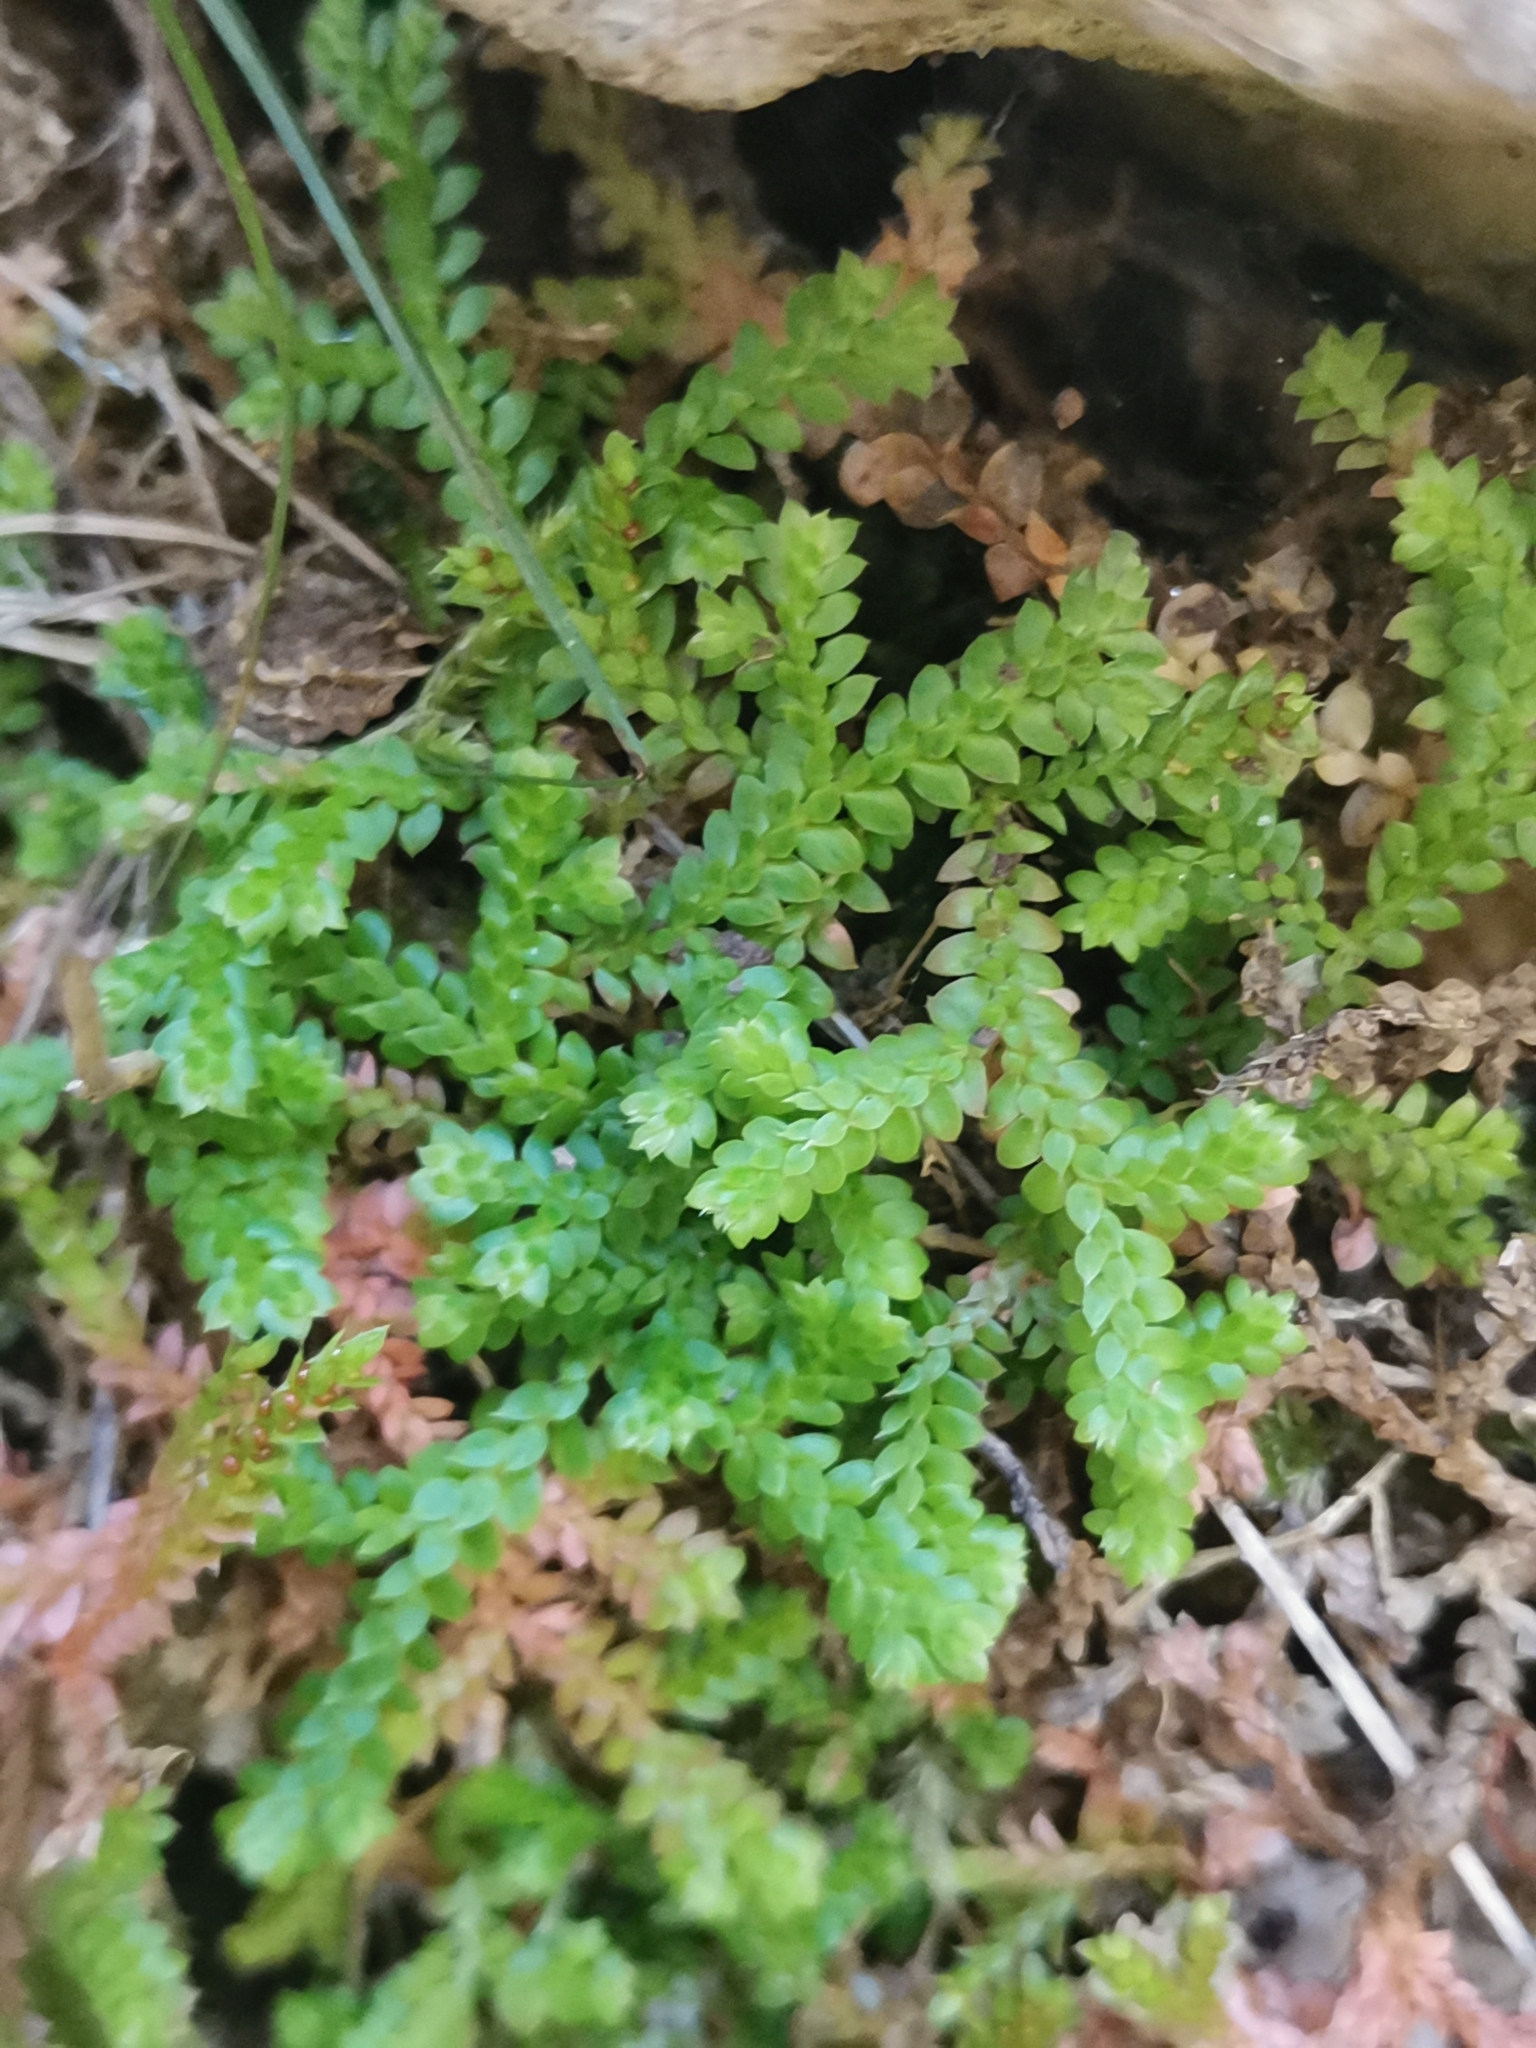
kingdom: Plantae
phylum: Tracheophyta
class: Lycopodiopsida
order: Selaginellales
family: Selaginellaceae
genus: Selaginella
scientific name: Selaginella denticulata
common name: Toothed-leaved clubmoss
